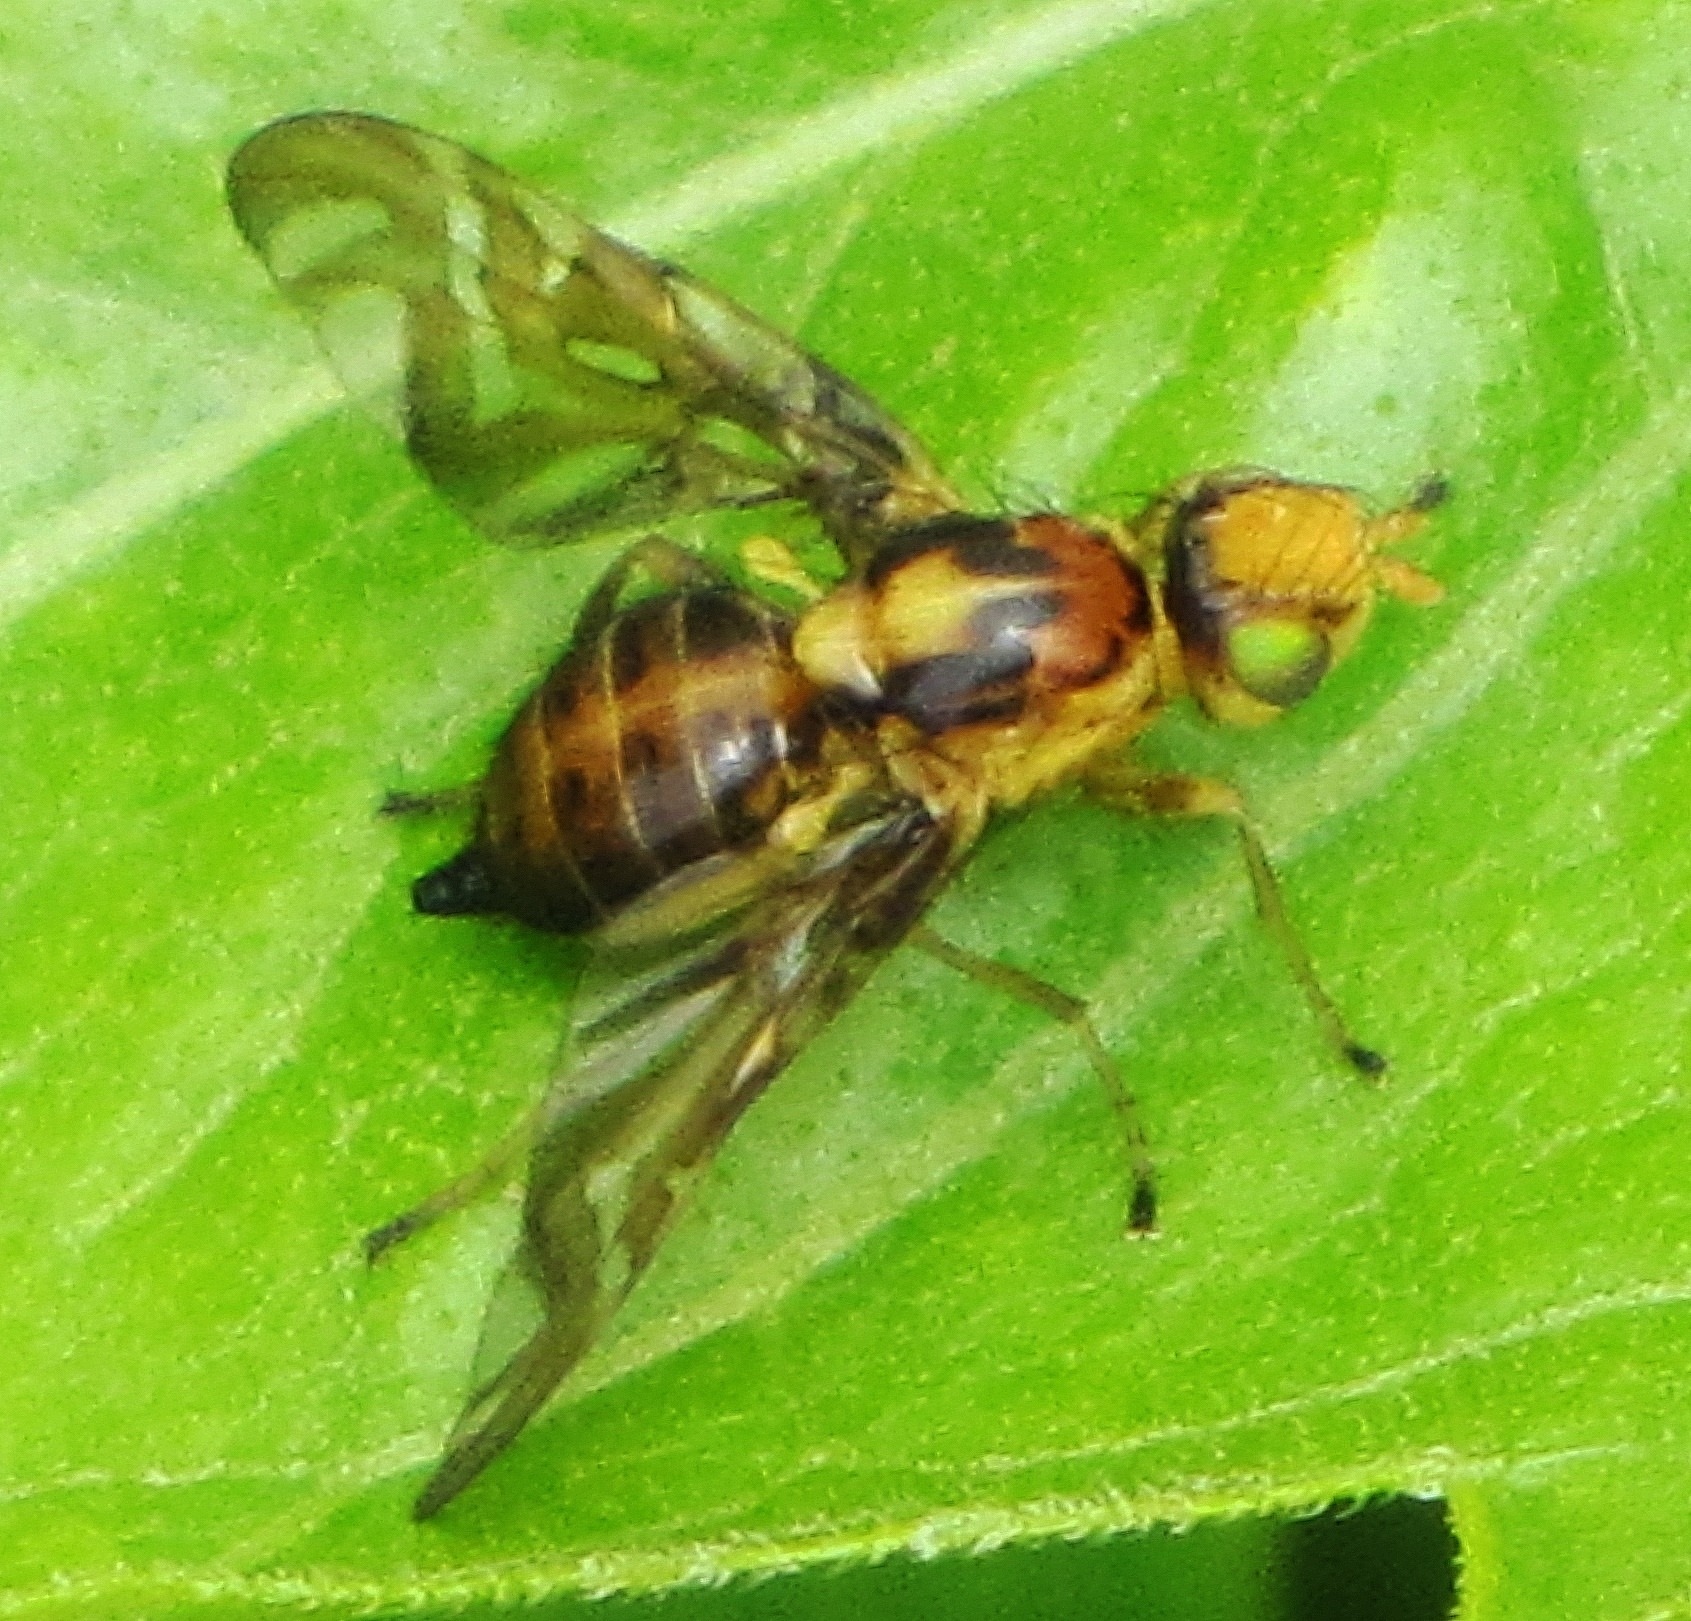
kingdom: Animalia
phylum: Arthropoda
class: Insecta
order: Diptera
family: Tephritidae
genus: Strauzia
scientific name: Strauzia intermedia
